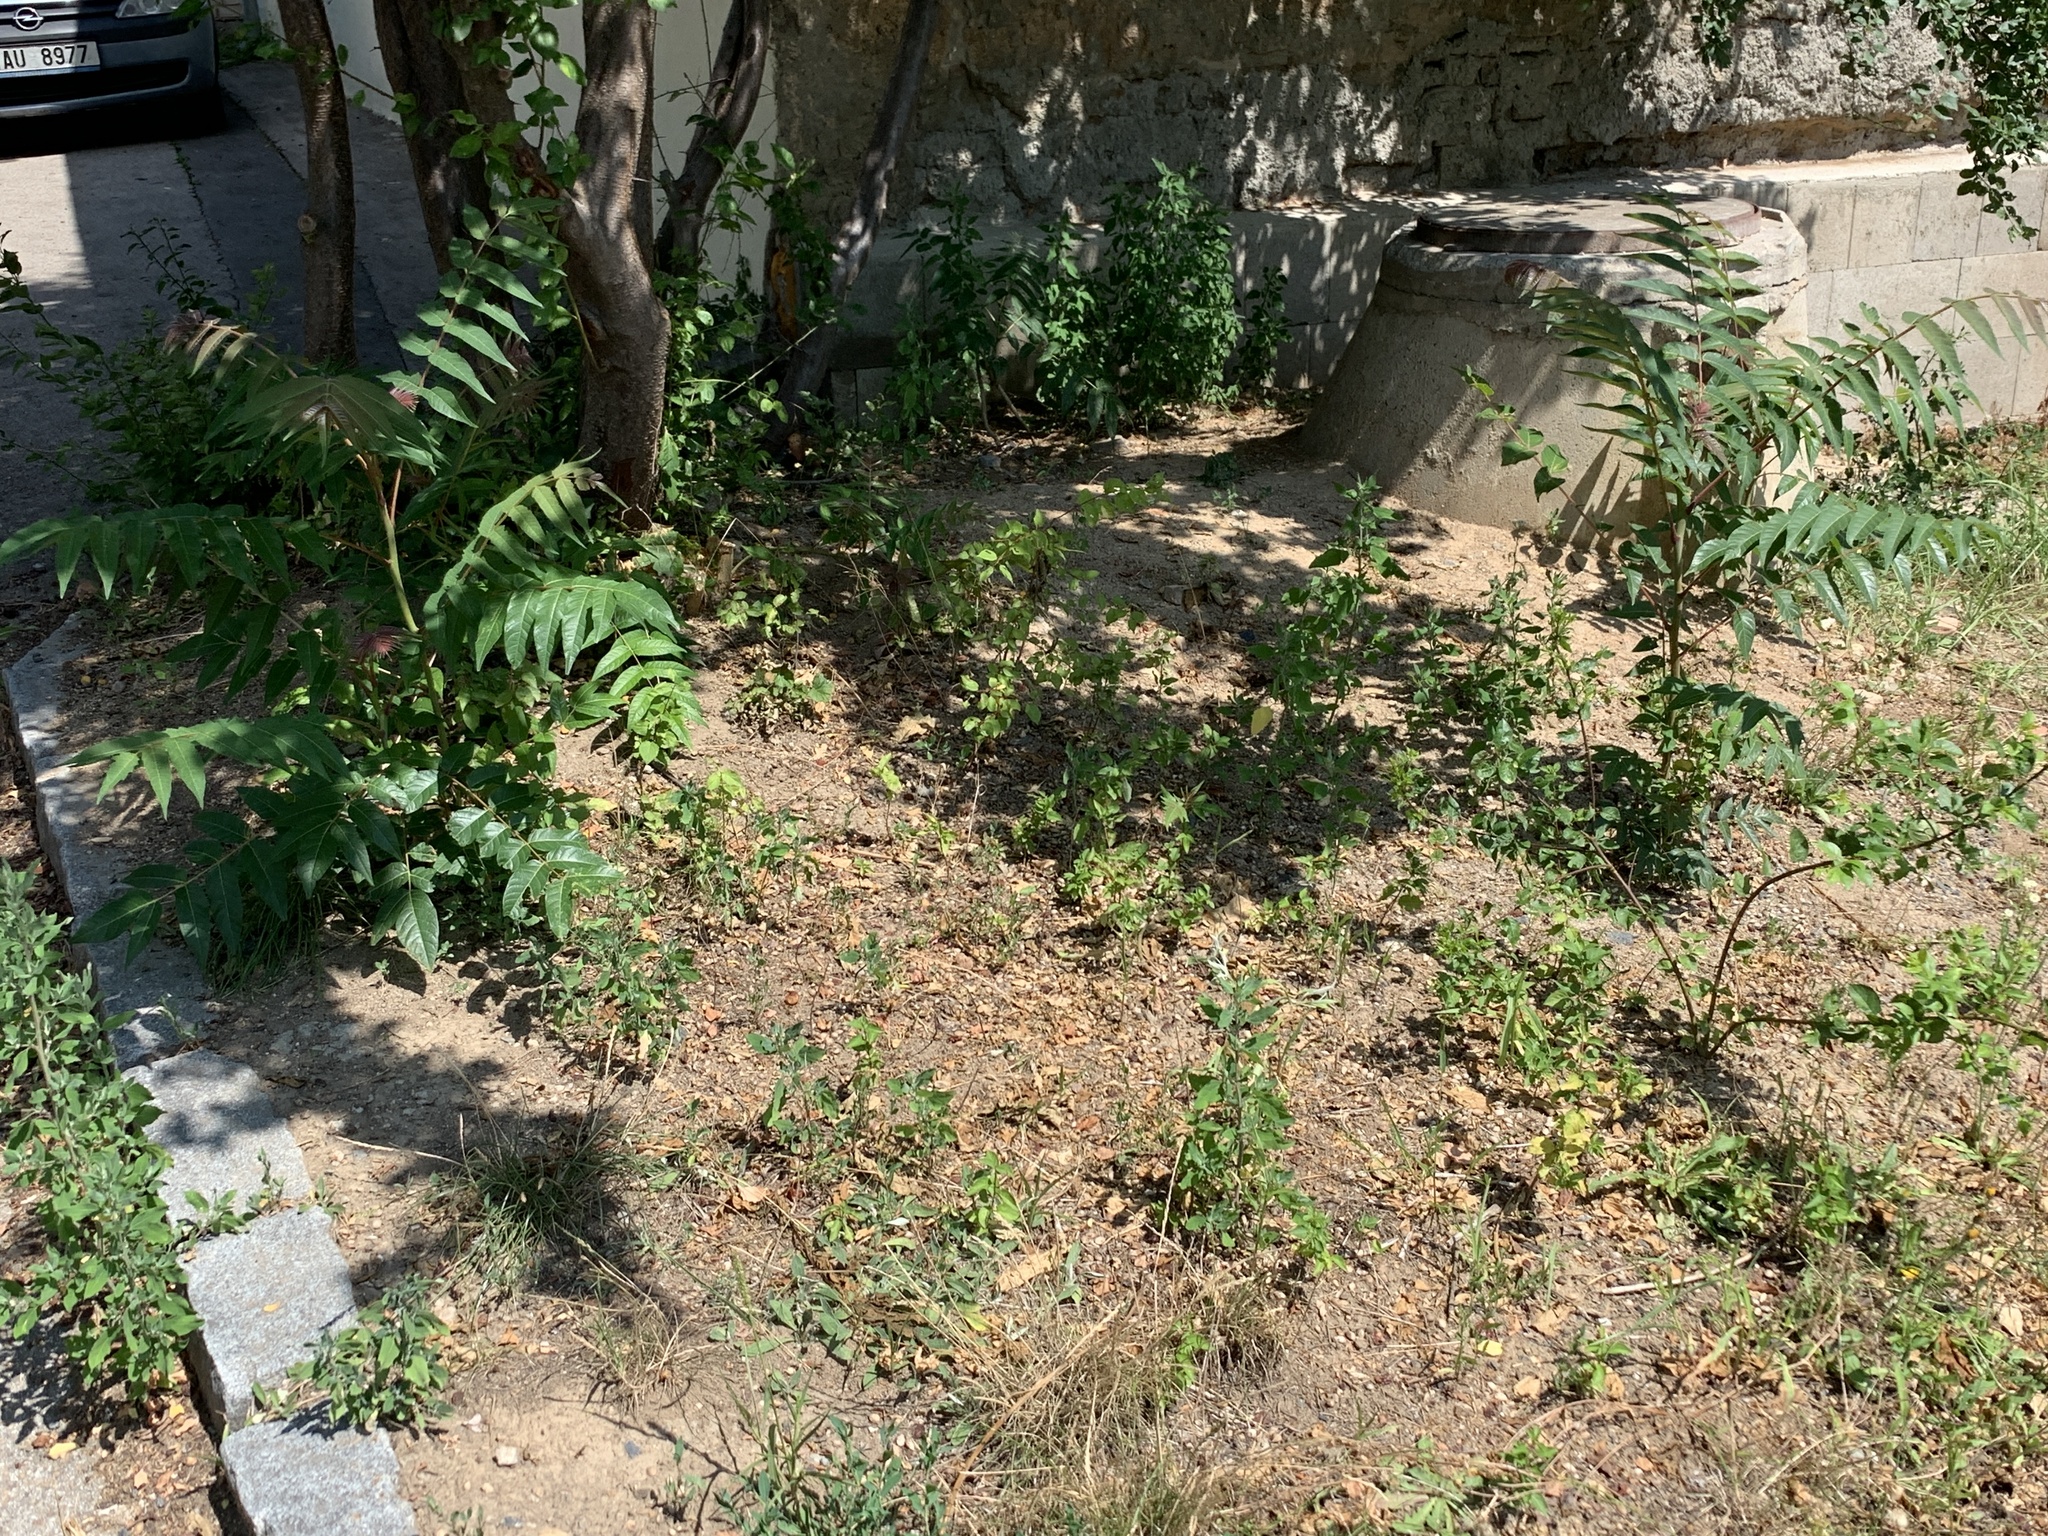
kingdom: Plantae
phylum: Tracheophyta
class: Magnoliopsida
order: Sapindales
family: Simaroubaceae
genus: Ailanthus
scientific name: Ailanthus altissima
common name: Tree-of-heaven
